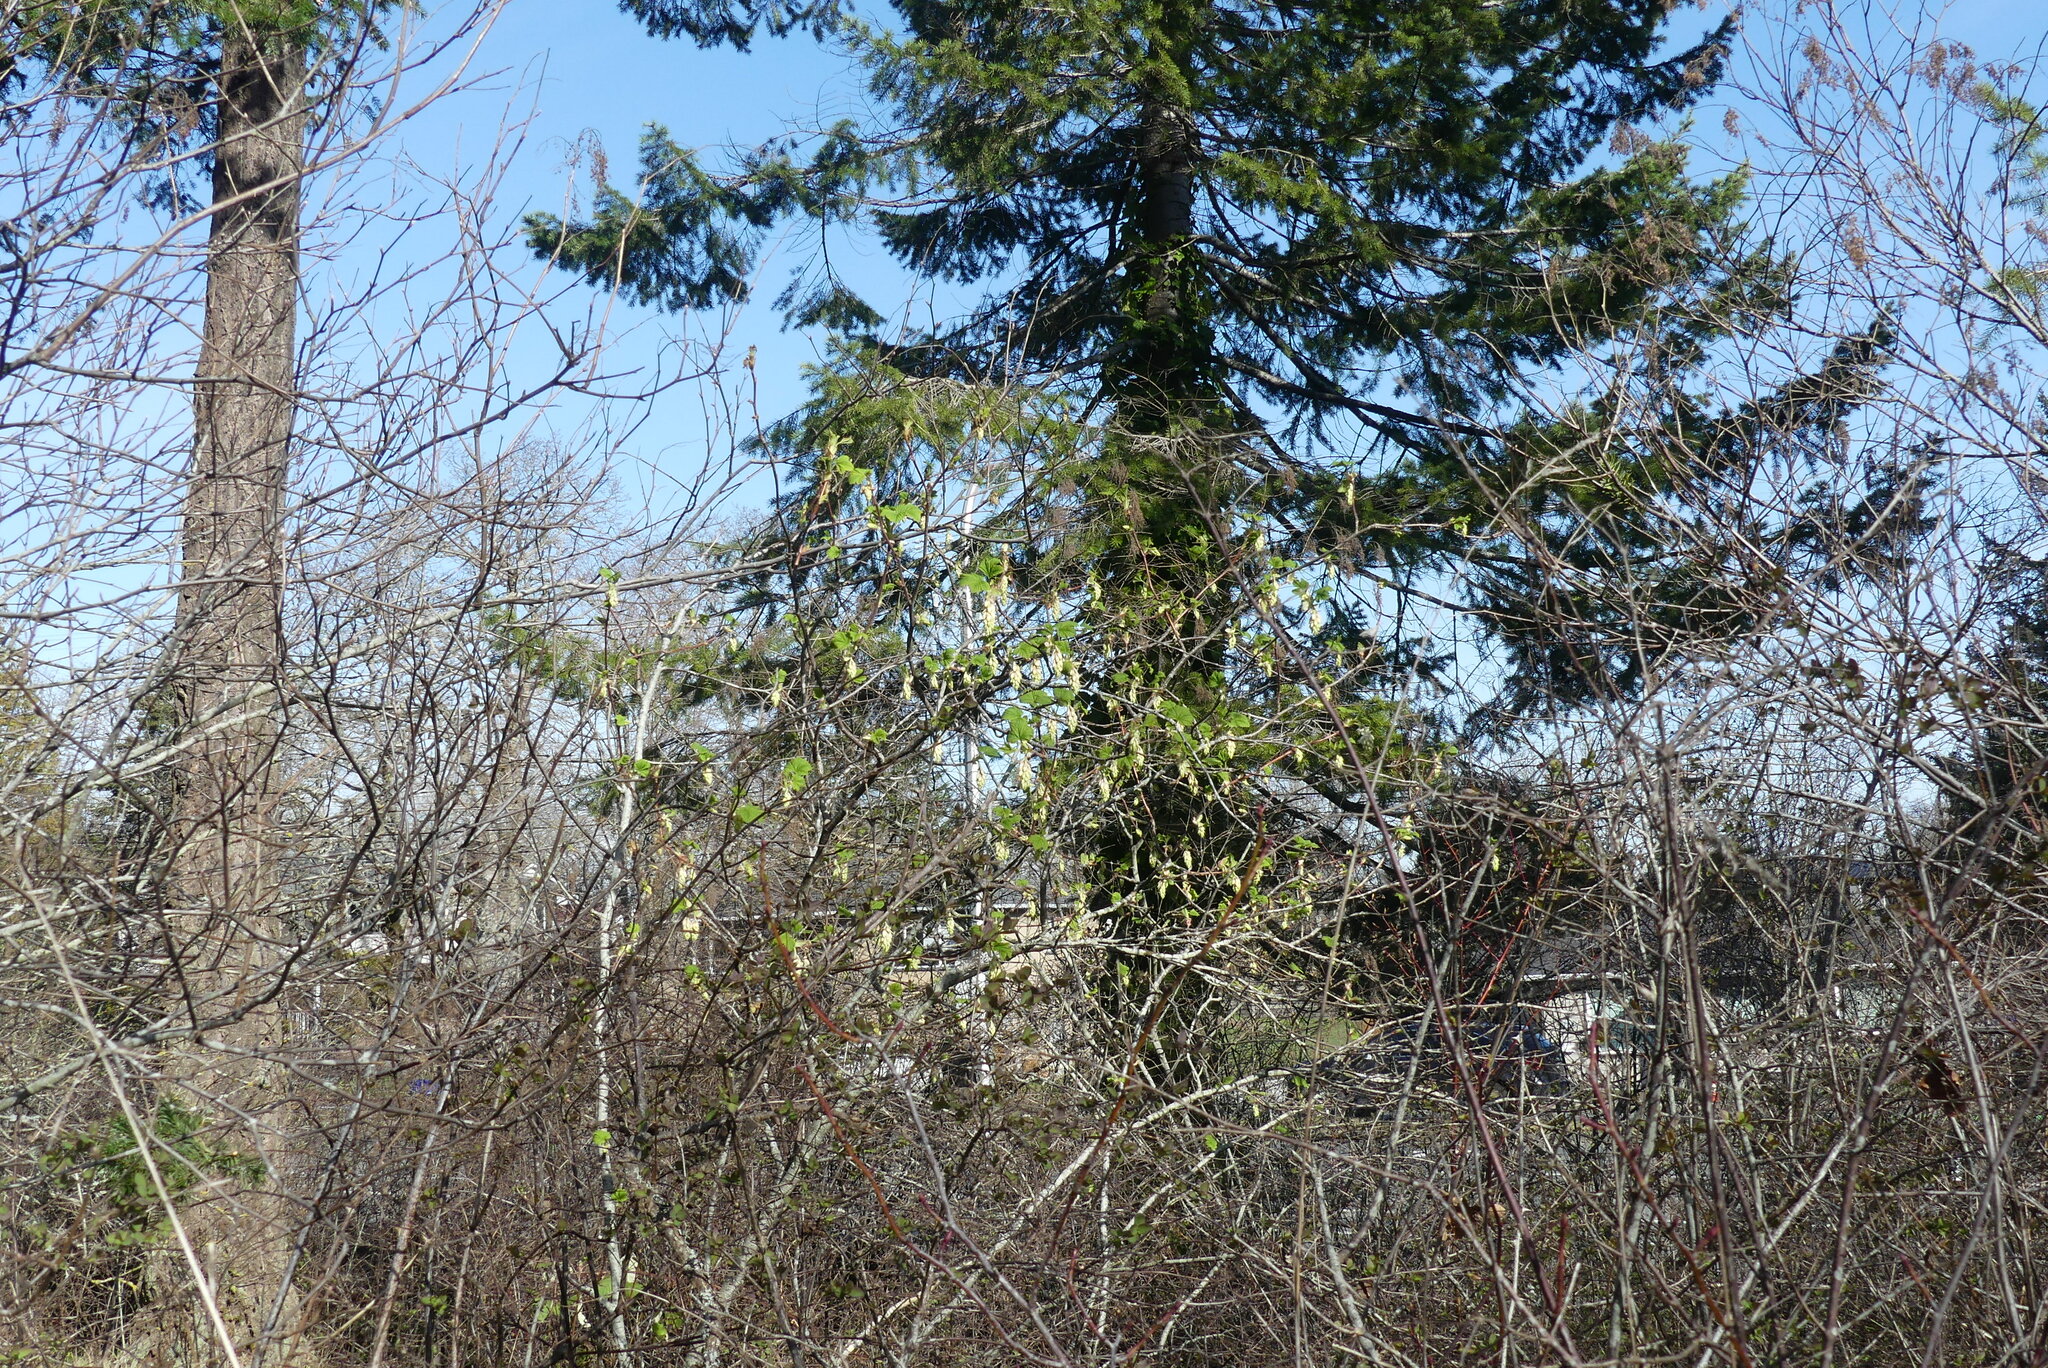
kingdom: Plantae
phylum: Tracheophyta
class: Magnoliopsida
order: Saxifragales
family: Grossulariaceae
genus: Ribes
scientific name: Ribes sanguineum
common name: Flowering currant
